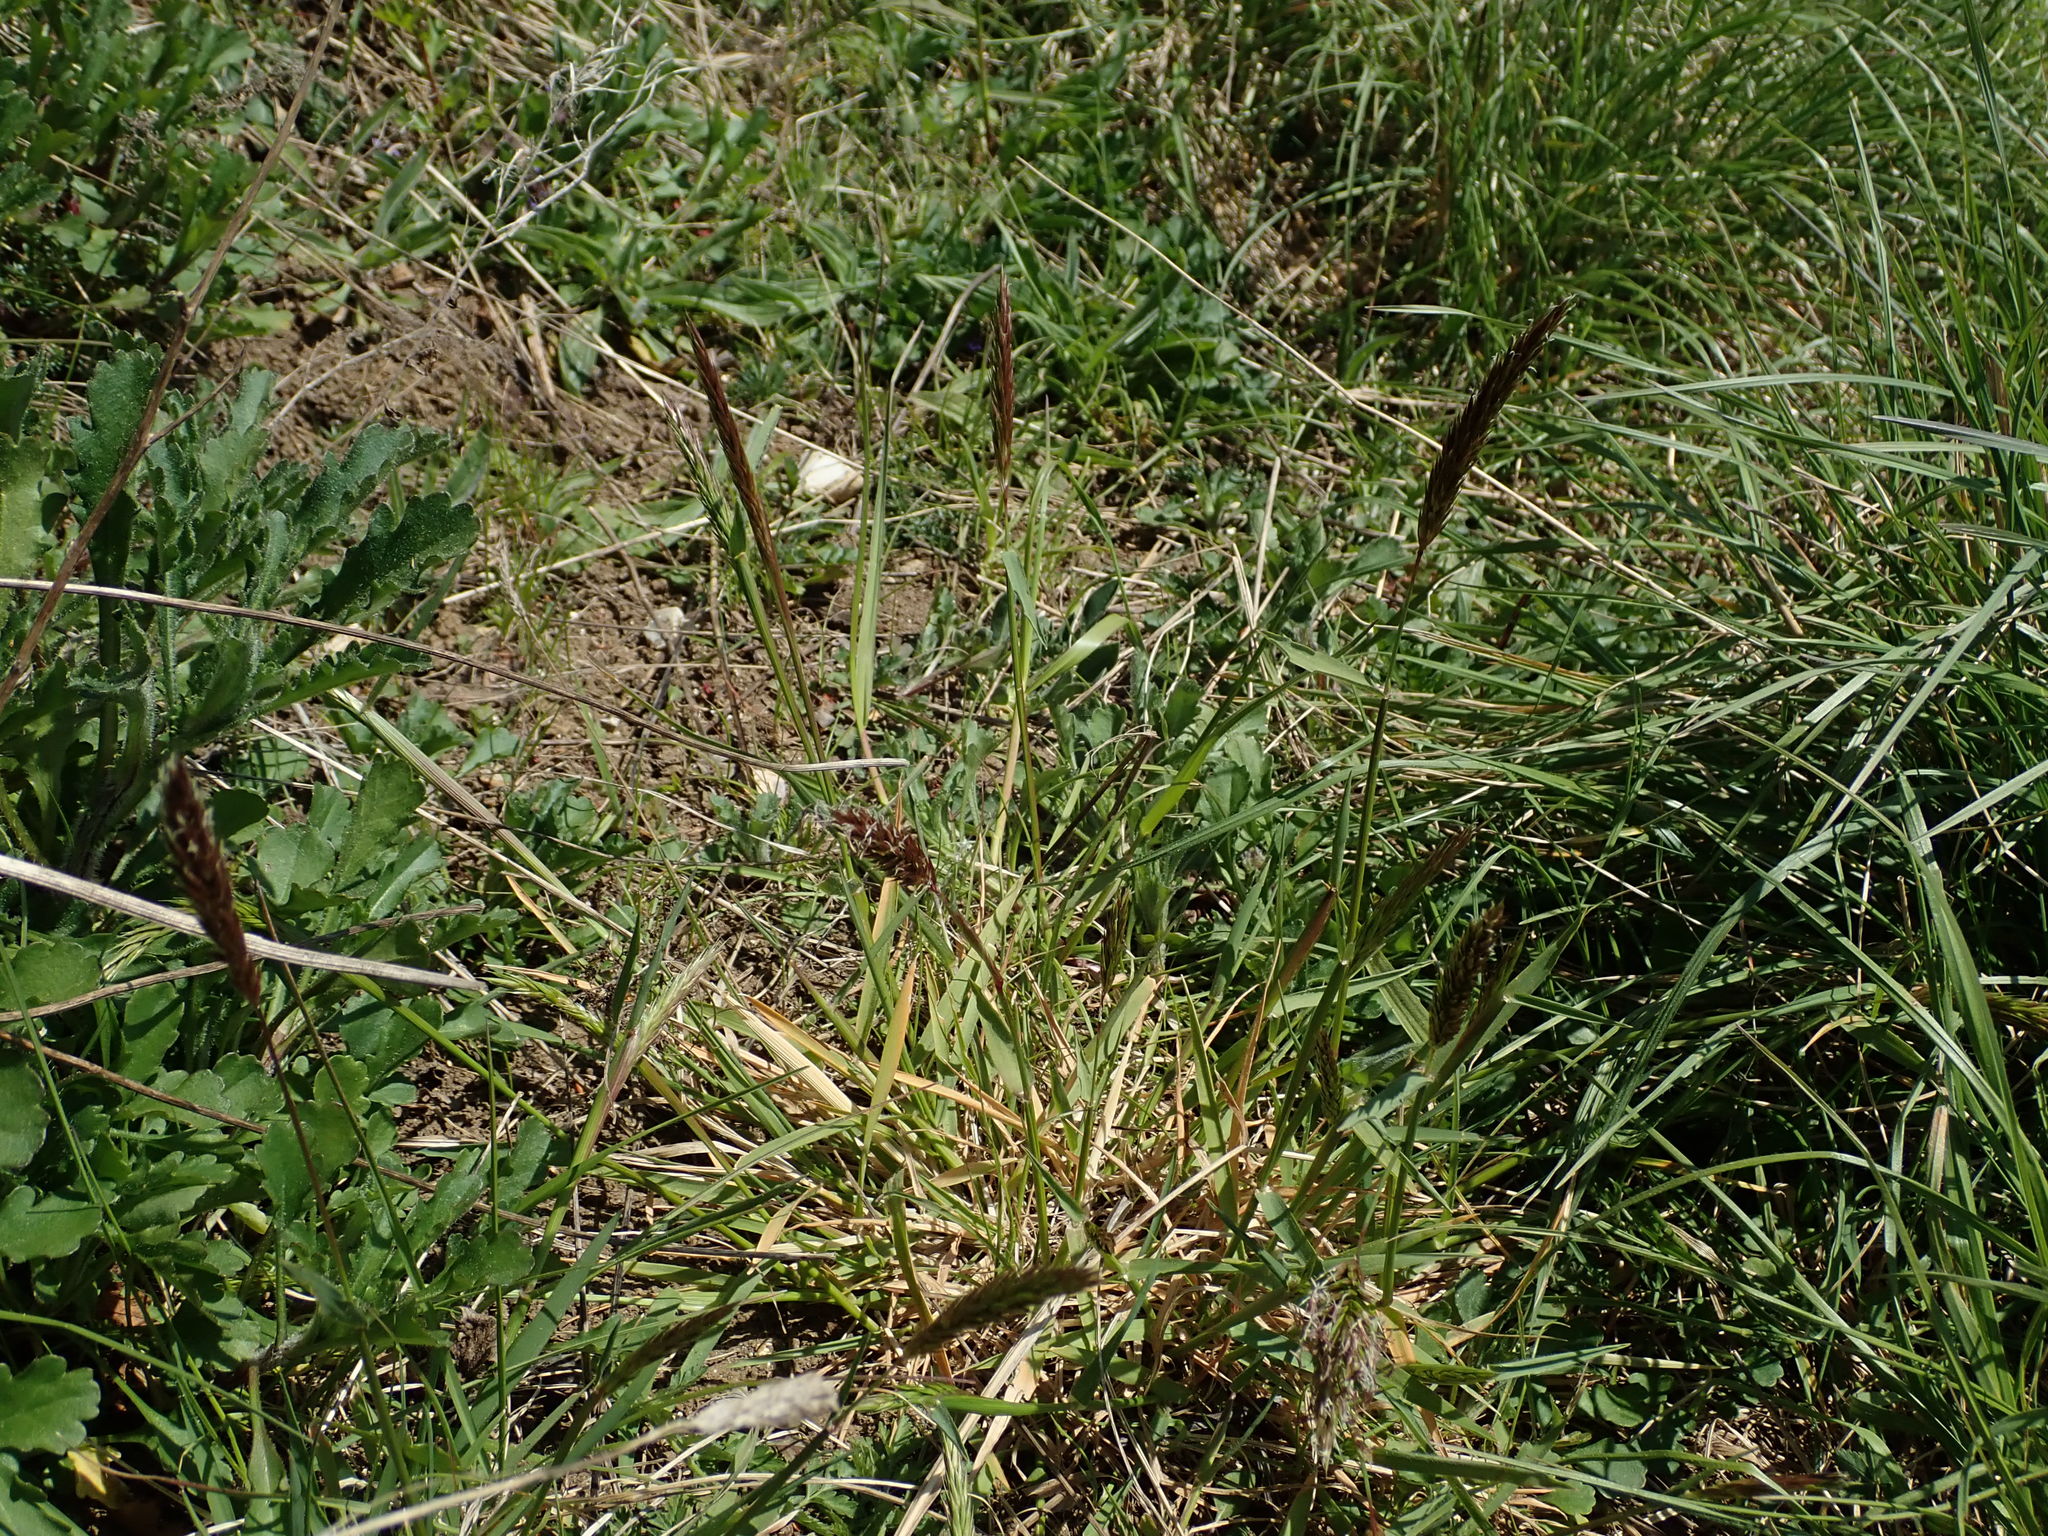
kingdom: Plantae
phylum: Tracheophyta
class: Liliopsida
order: Poales
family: Poaceae
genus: Anthoxanthum
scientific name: Anthoxanthum odoratum
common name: Sweet vernalgrass
